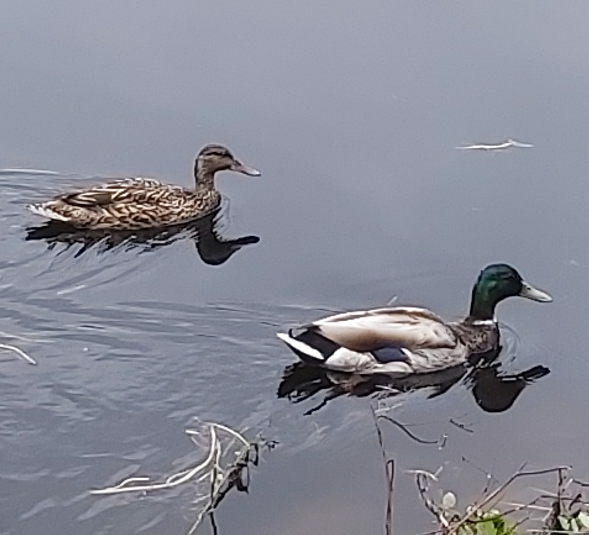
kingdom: Animalia
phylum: Chordata
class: Aves
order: Anseriformes
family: Anatidae
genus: Anas
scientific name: Anas platyrhynchos
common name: Mallard
